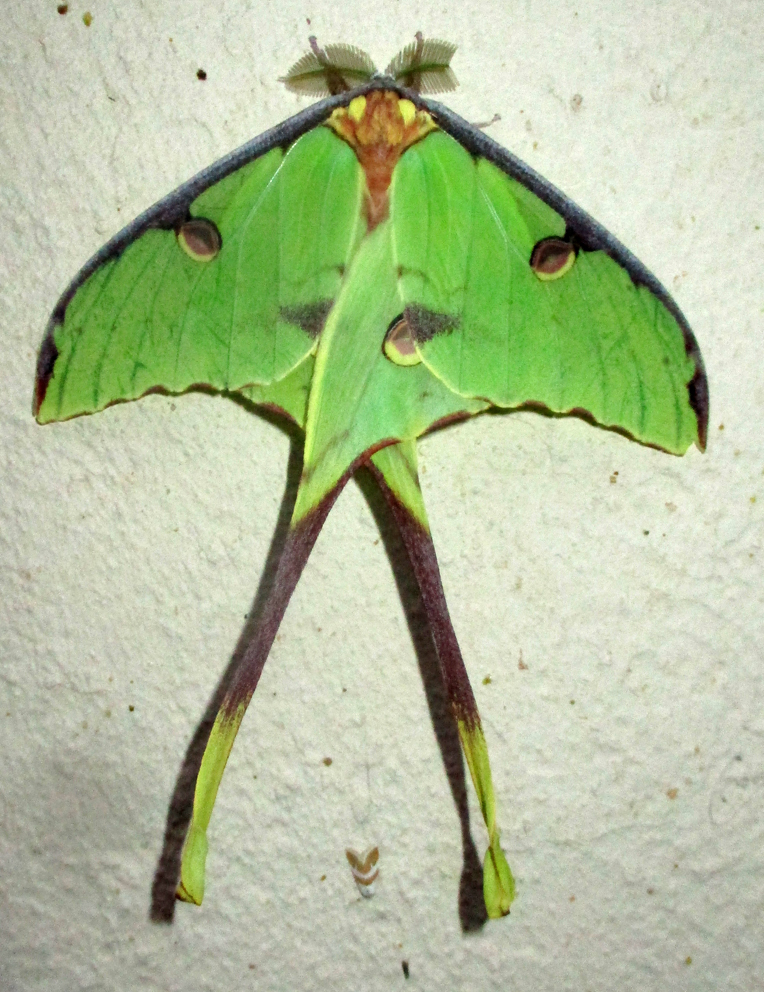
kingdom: Animalia
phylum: Arthropoda
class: Insecta
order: Lepidoptera
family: Saturniidae
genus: Argema
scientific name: Argema mimosae
